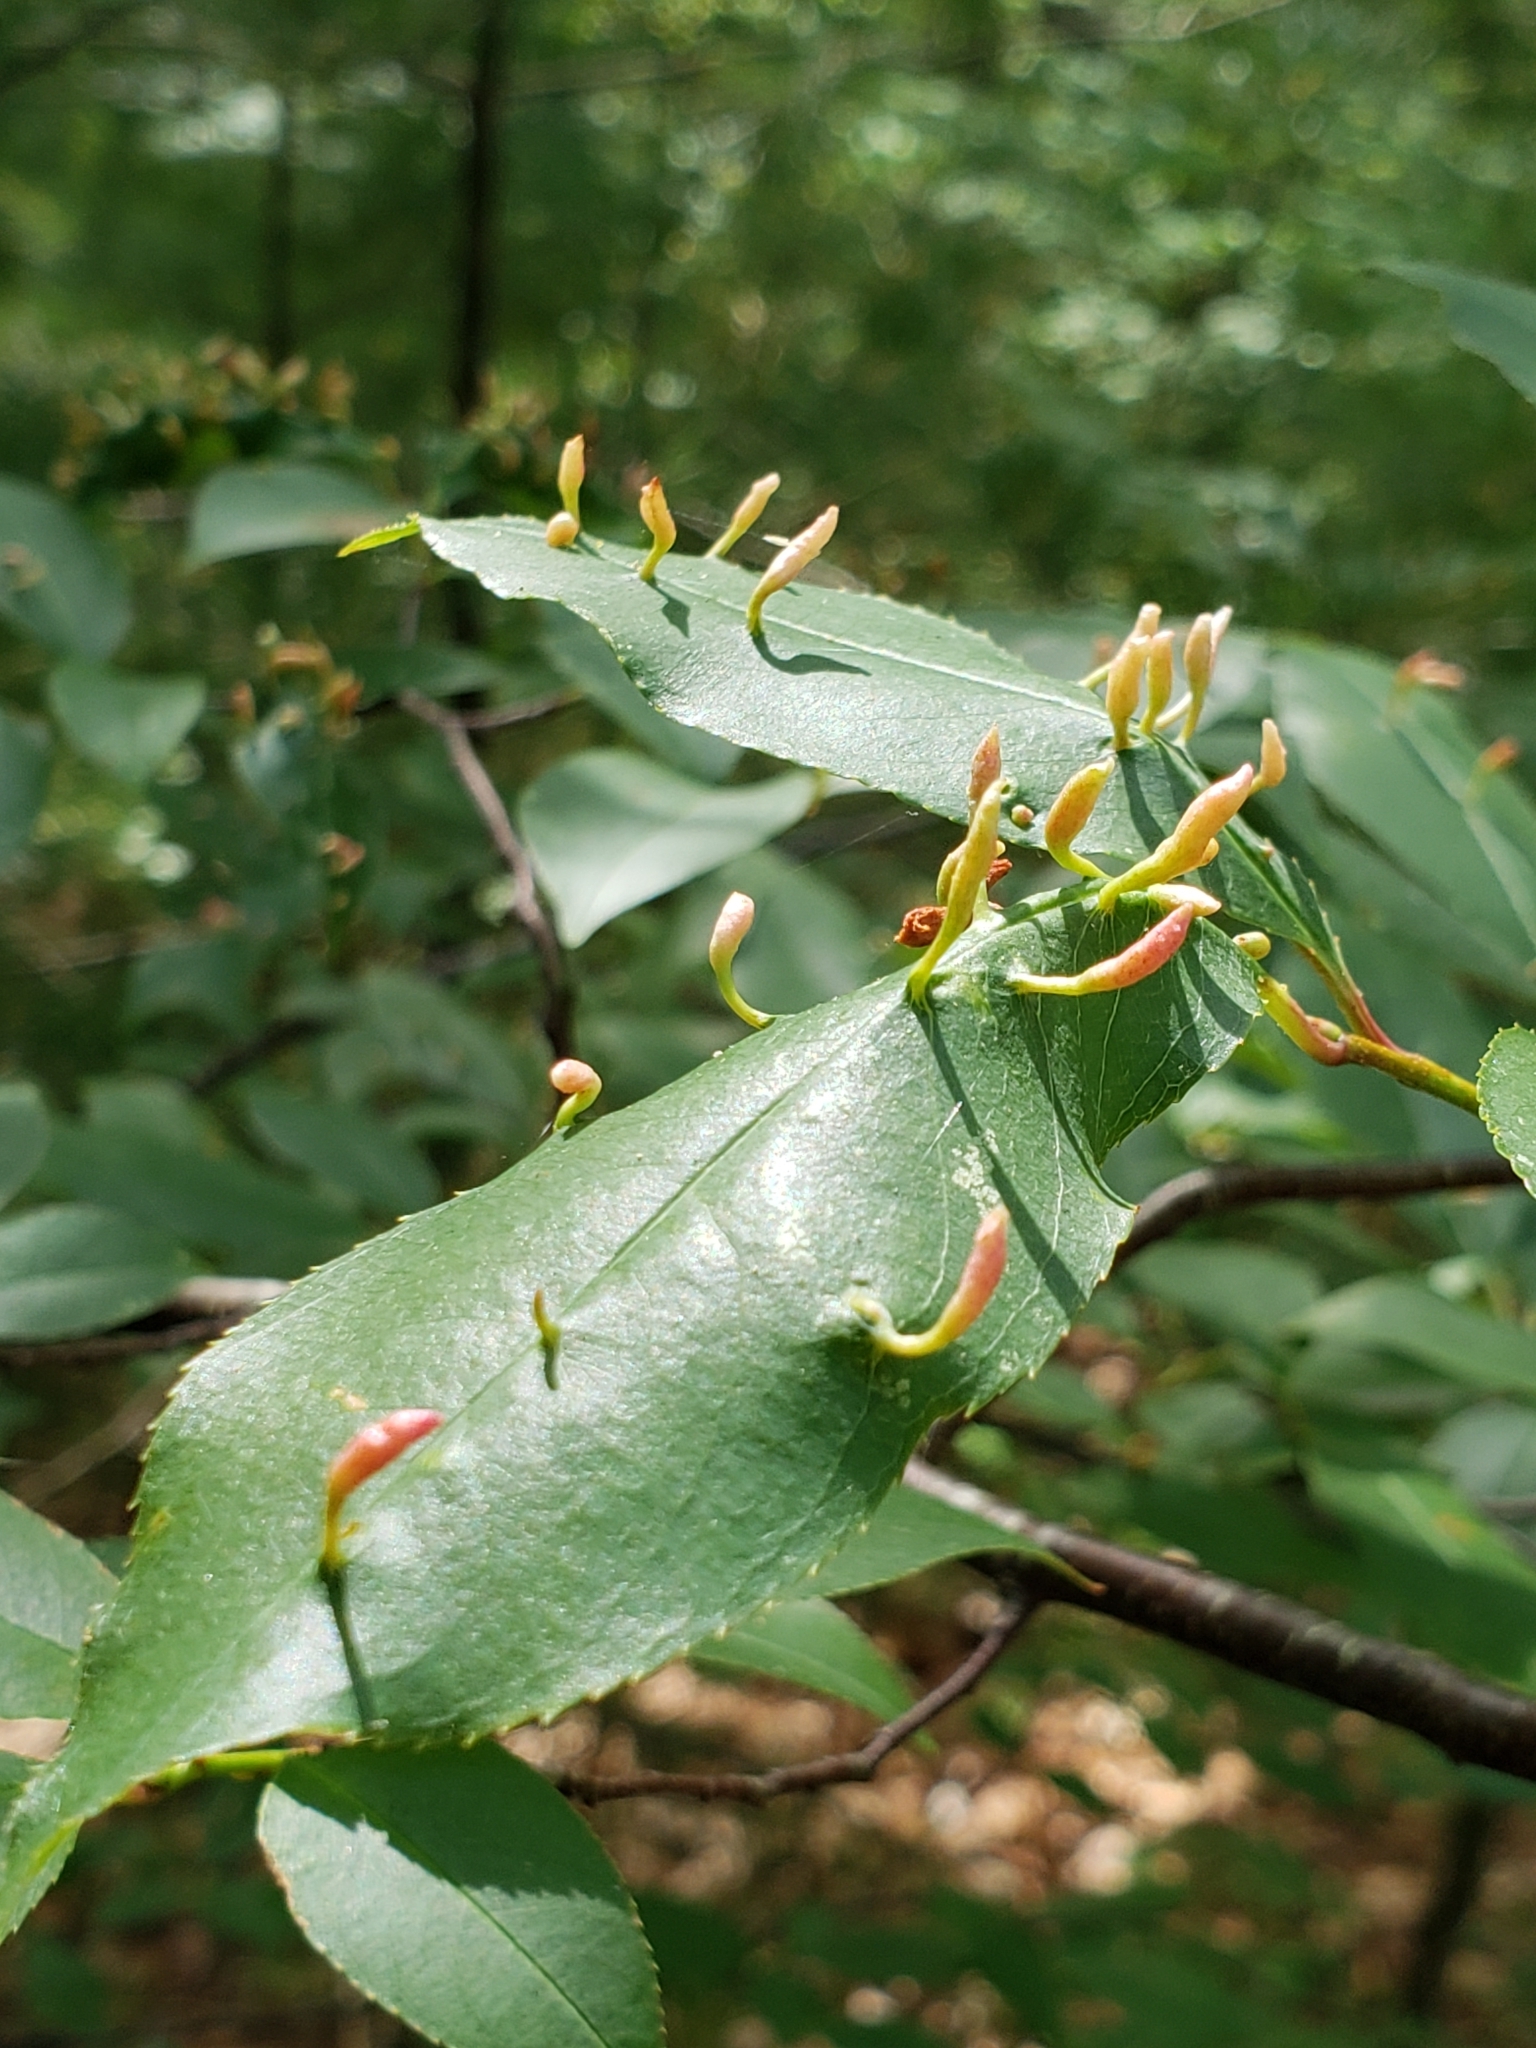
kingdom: Animalia
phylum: Arthropoda
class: Arachnida
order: Trombidiformes
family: Eriophyidae
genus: Eriophyes
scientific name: Eriophyes
